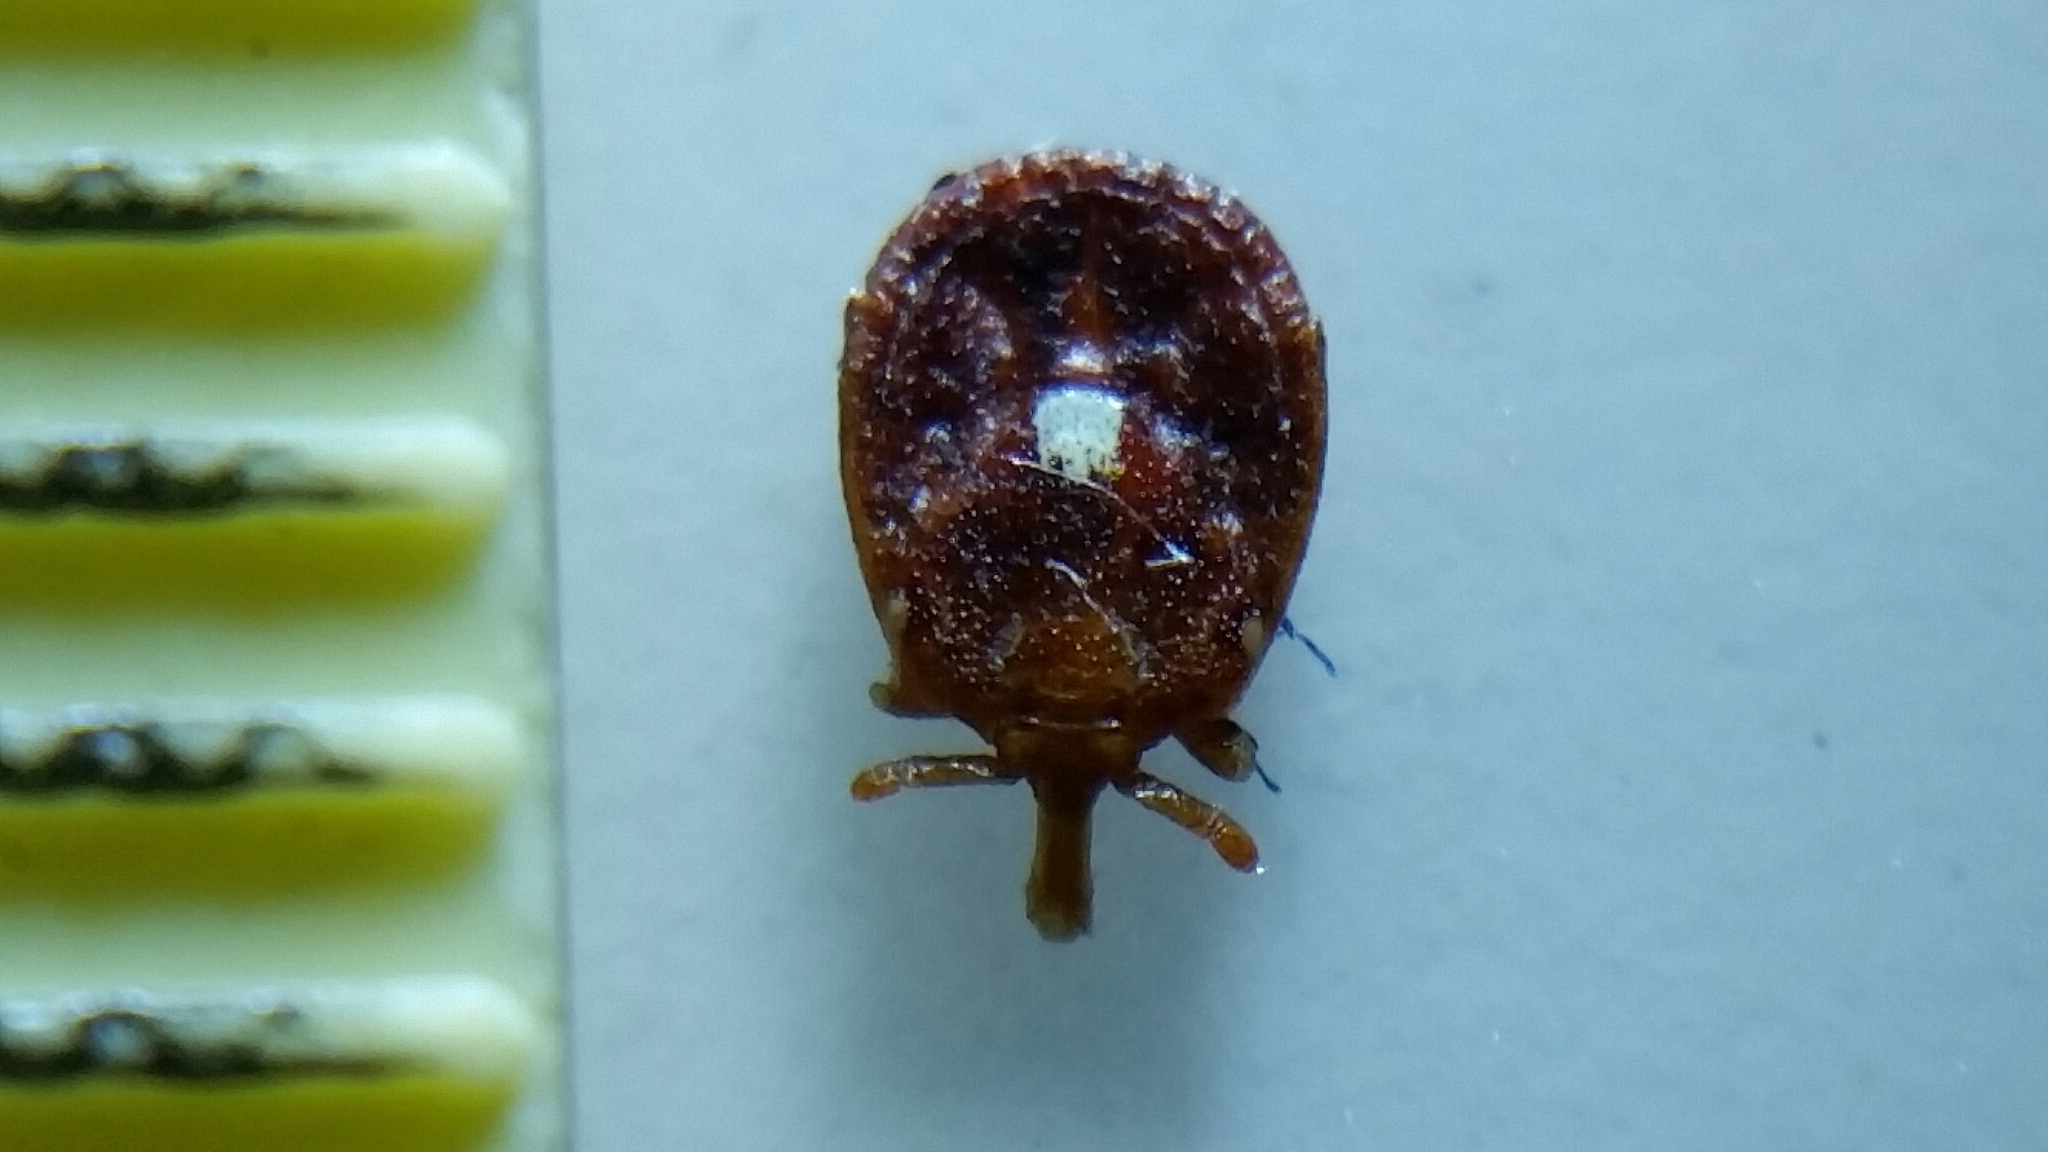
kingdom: Animalia
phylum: Arthropoda
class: Arachnida
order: Ixodida
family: Ixodidae
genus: Amblyomma
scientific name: Amblyomma americanum
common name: Lone star tick
